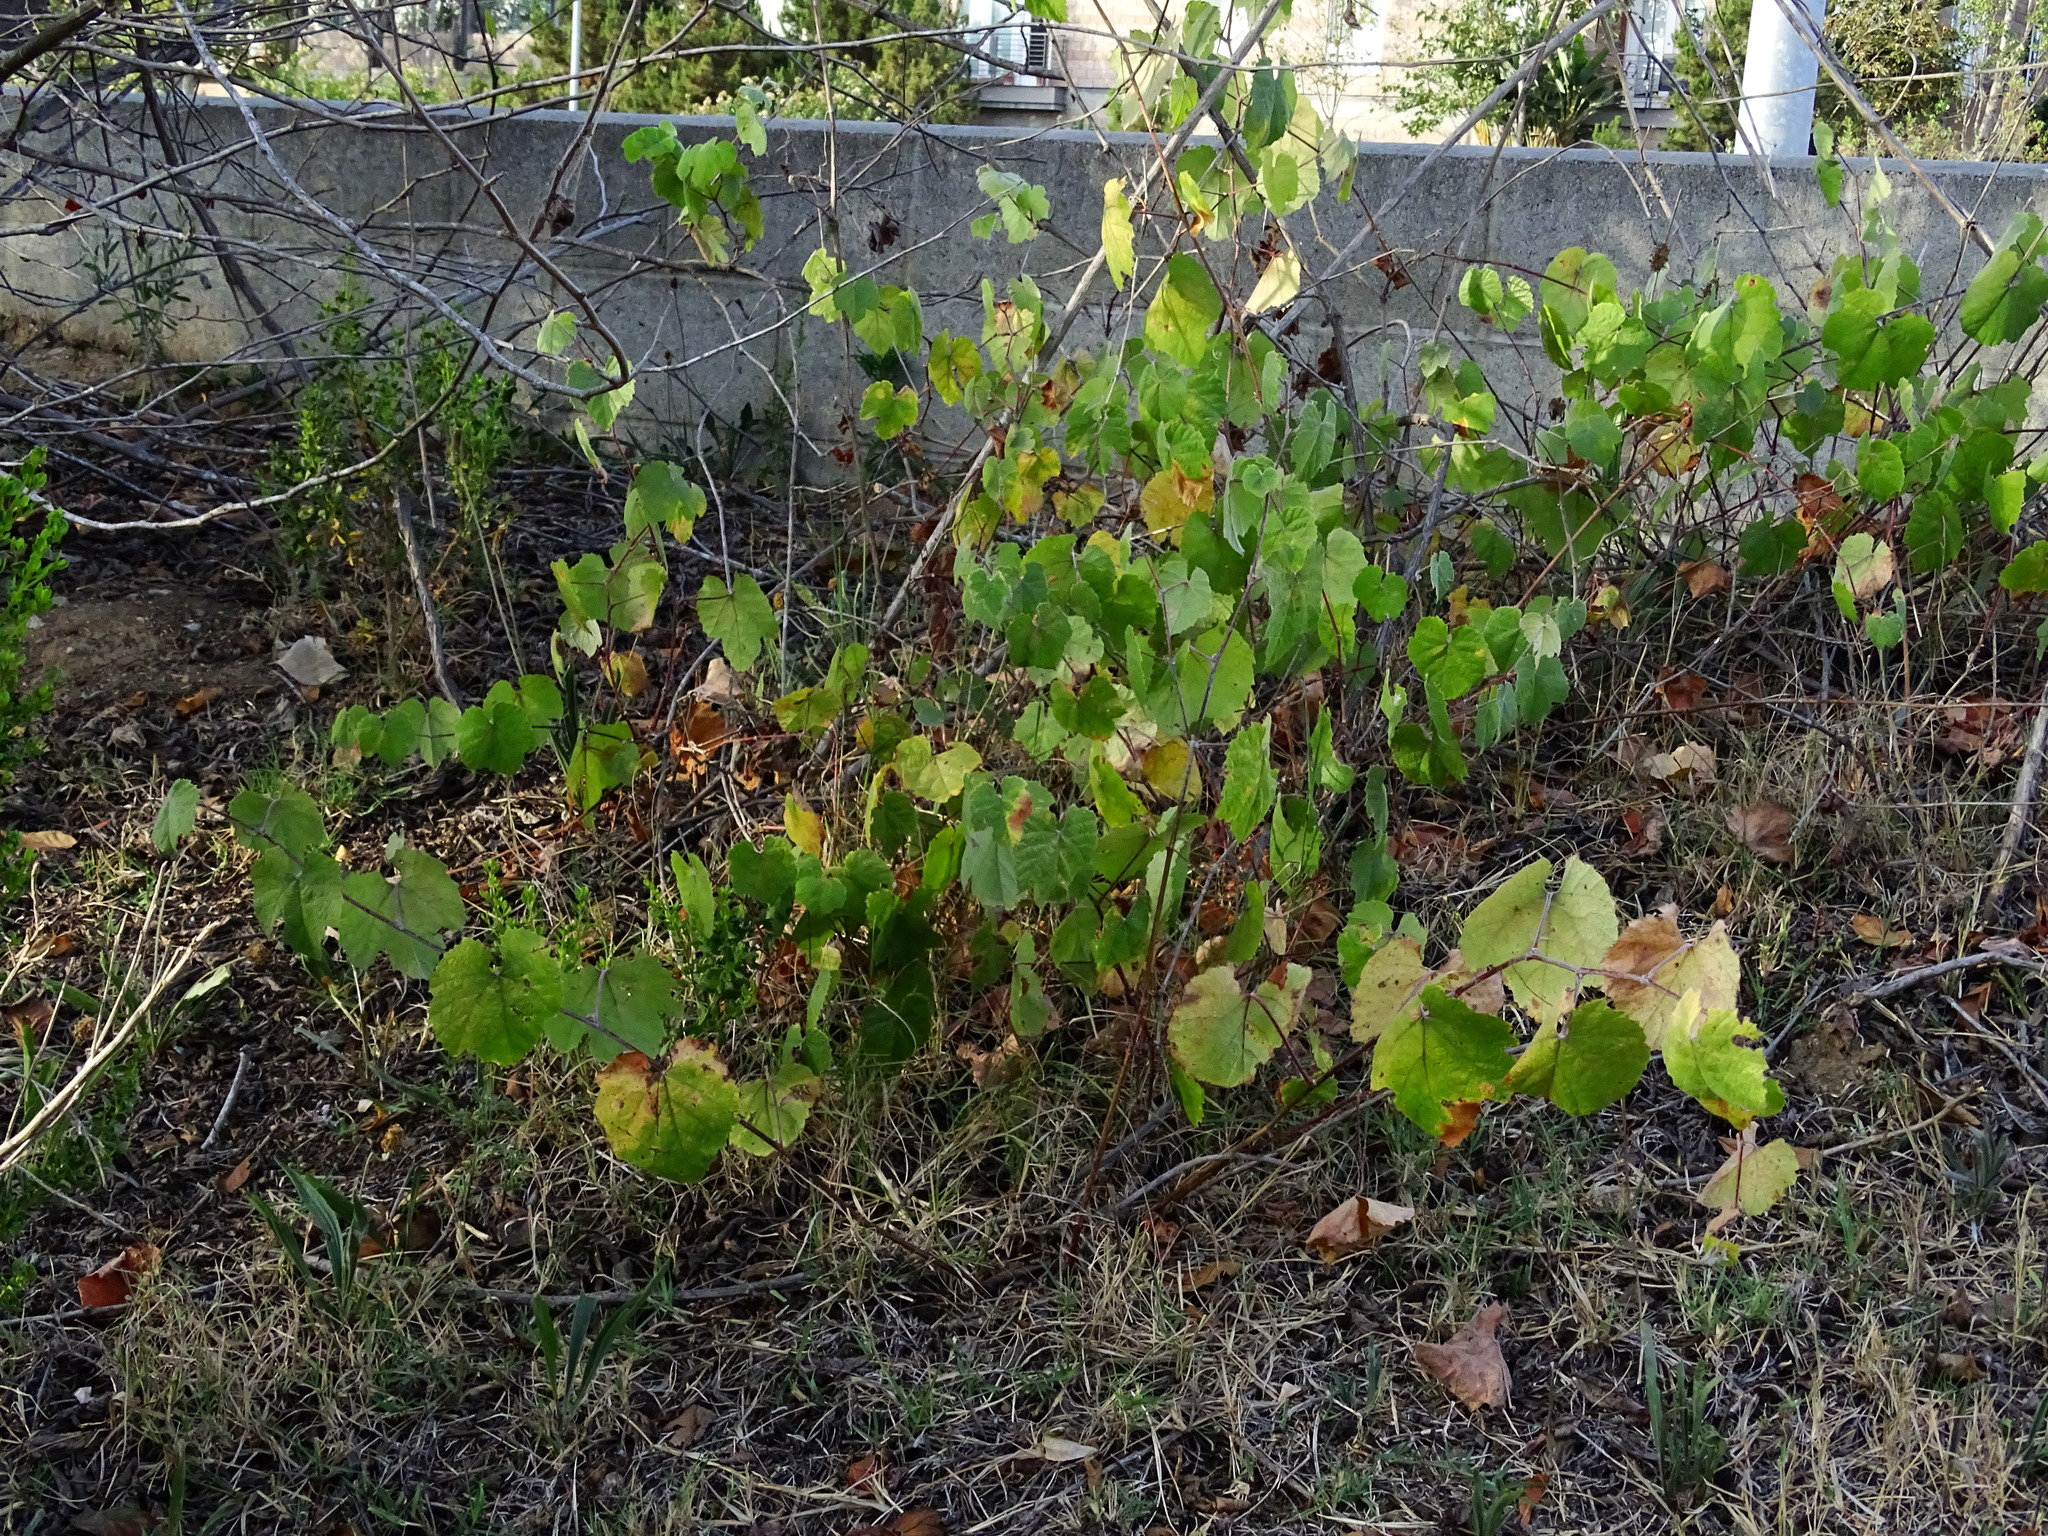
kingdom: Plantae
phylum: Tracheophyta
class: Magnoliopsida
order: Vitales
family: Vitaceae
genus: Vitis
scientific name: Vitis girdiana
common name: Desert wild grape
